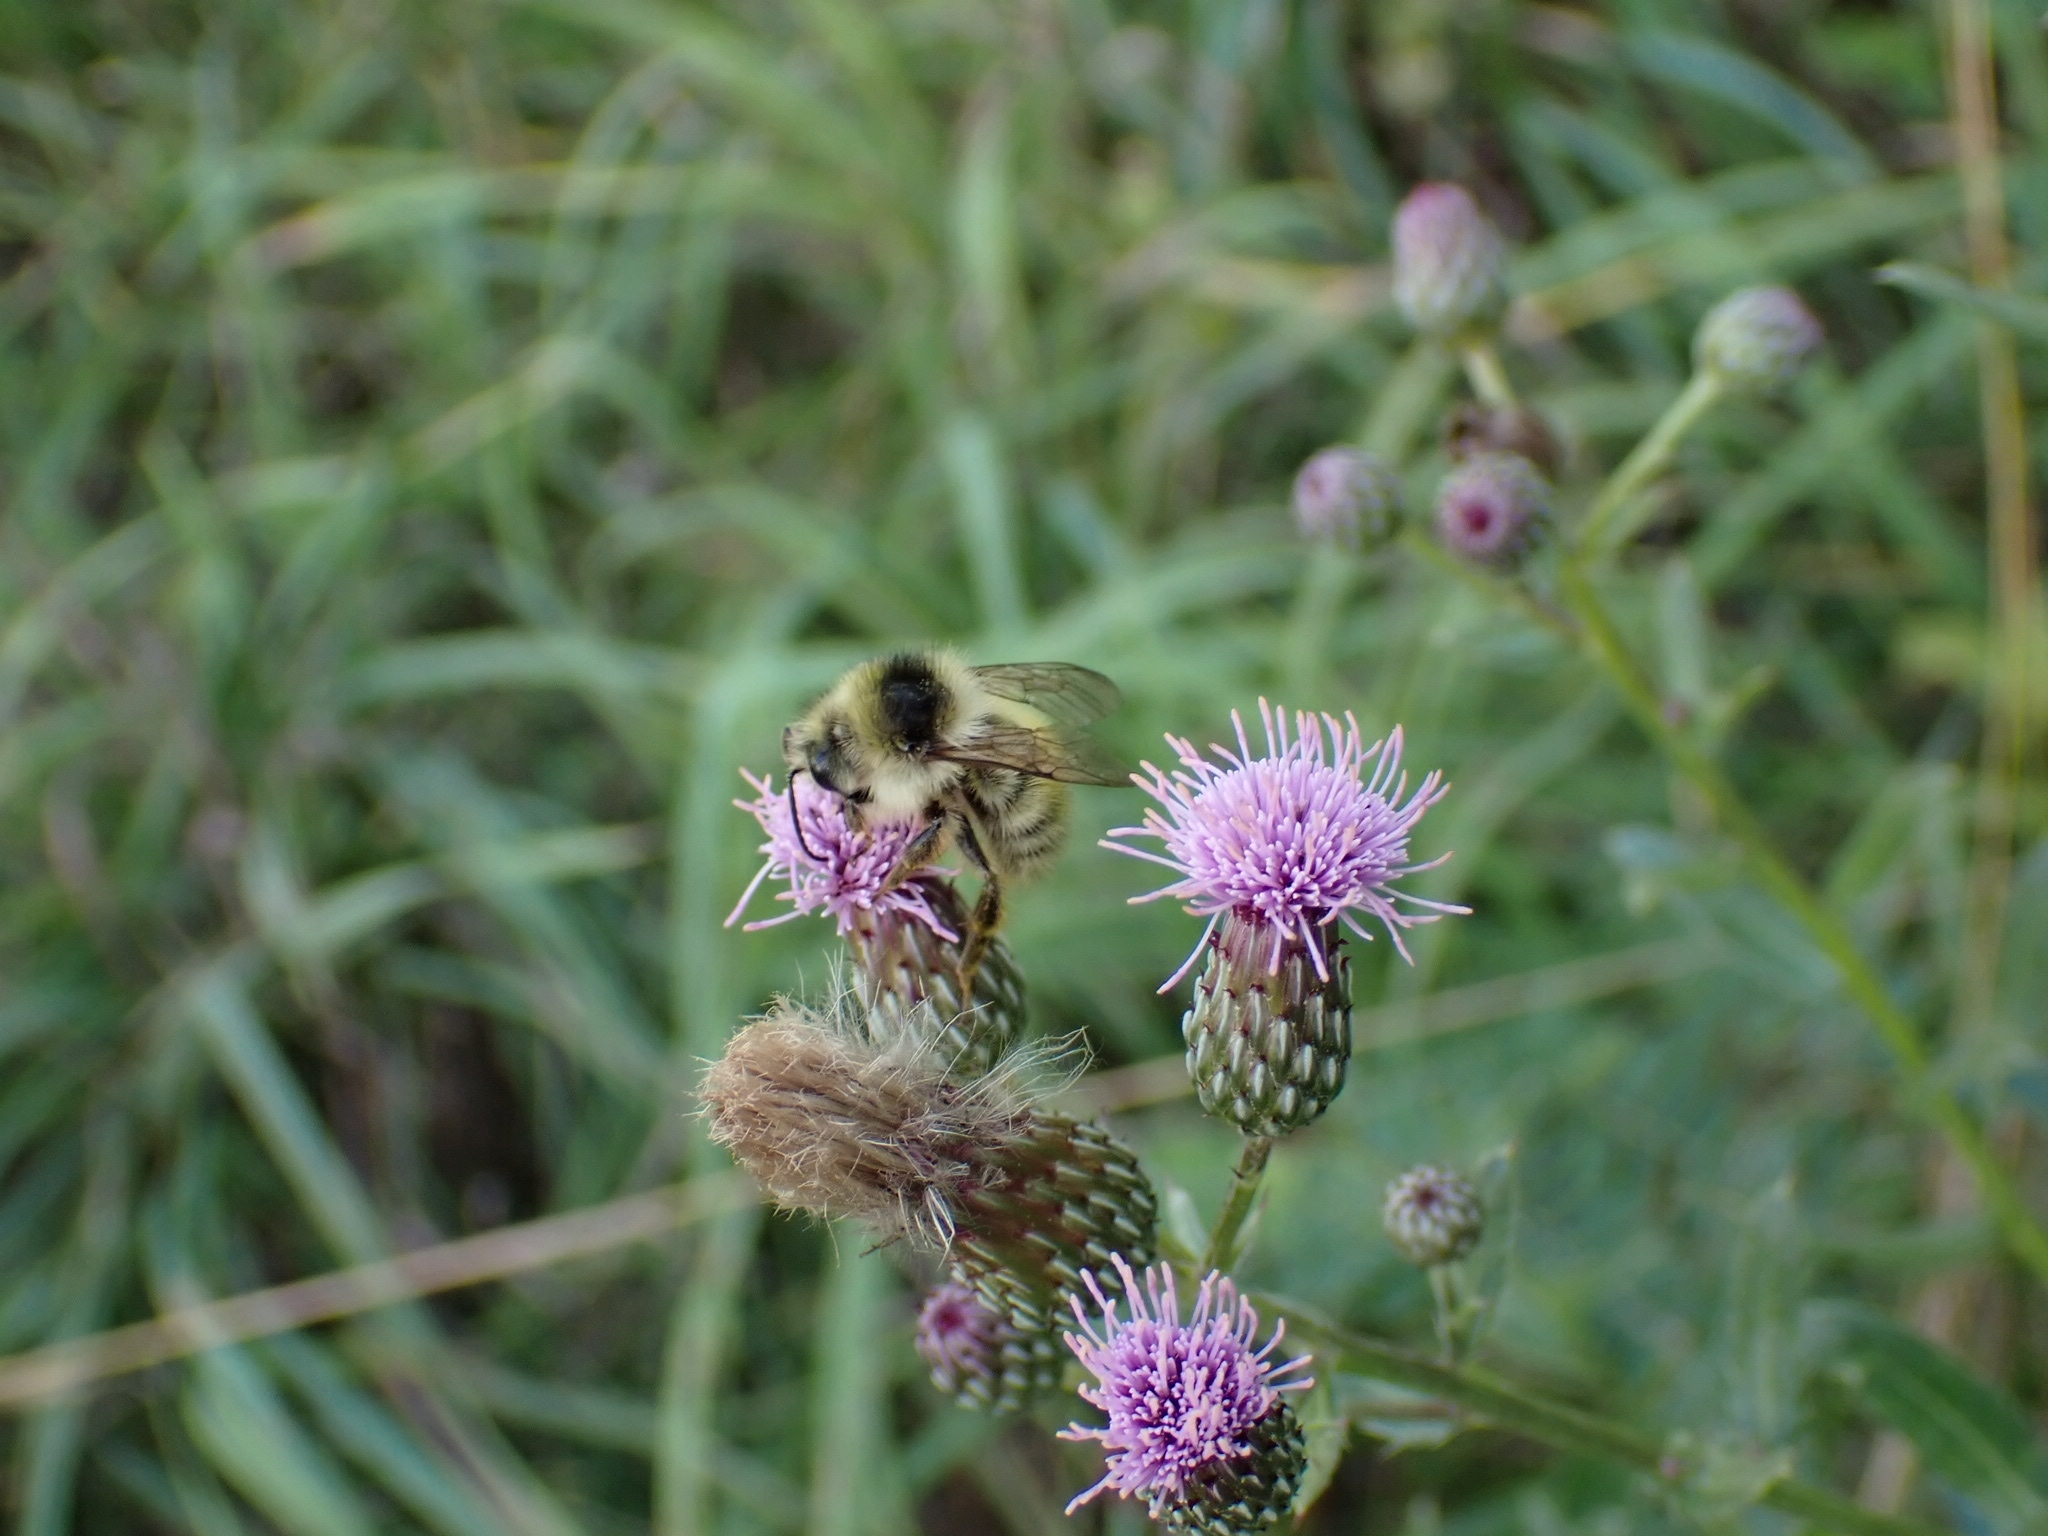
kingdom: Animalia
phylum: Arthropoda
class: Insecta
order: Hymenoptera
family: Apidae
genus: Bombus
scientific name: Bombus veteranus
